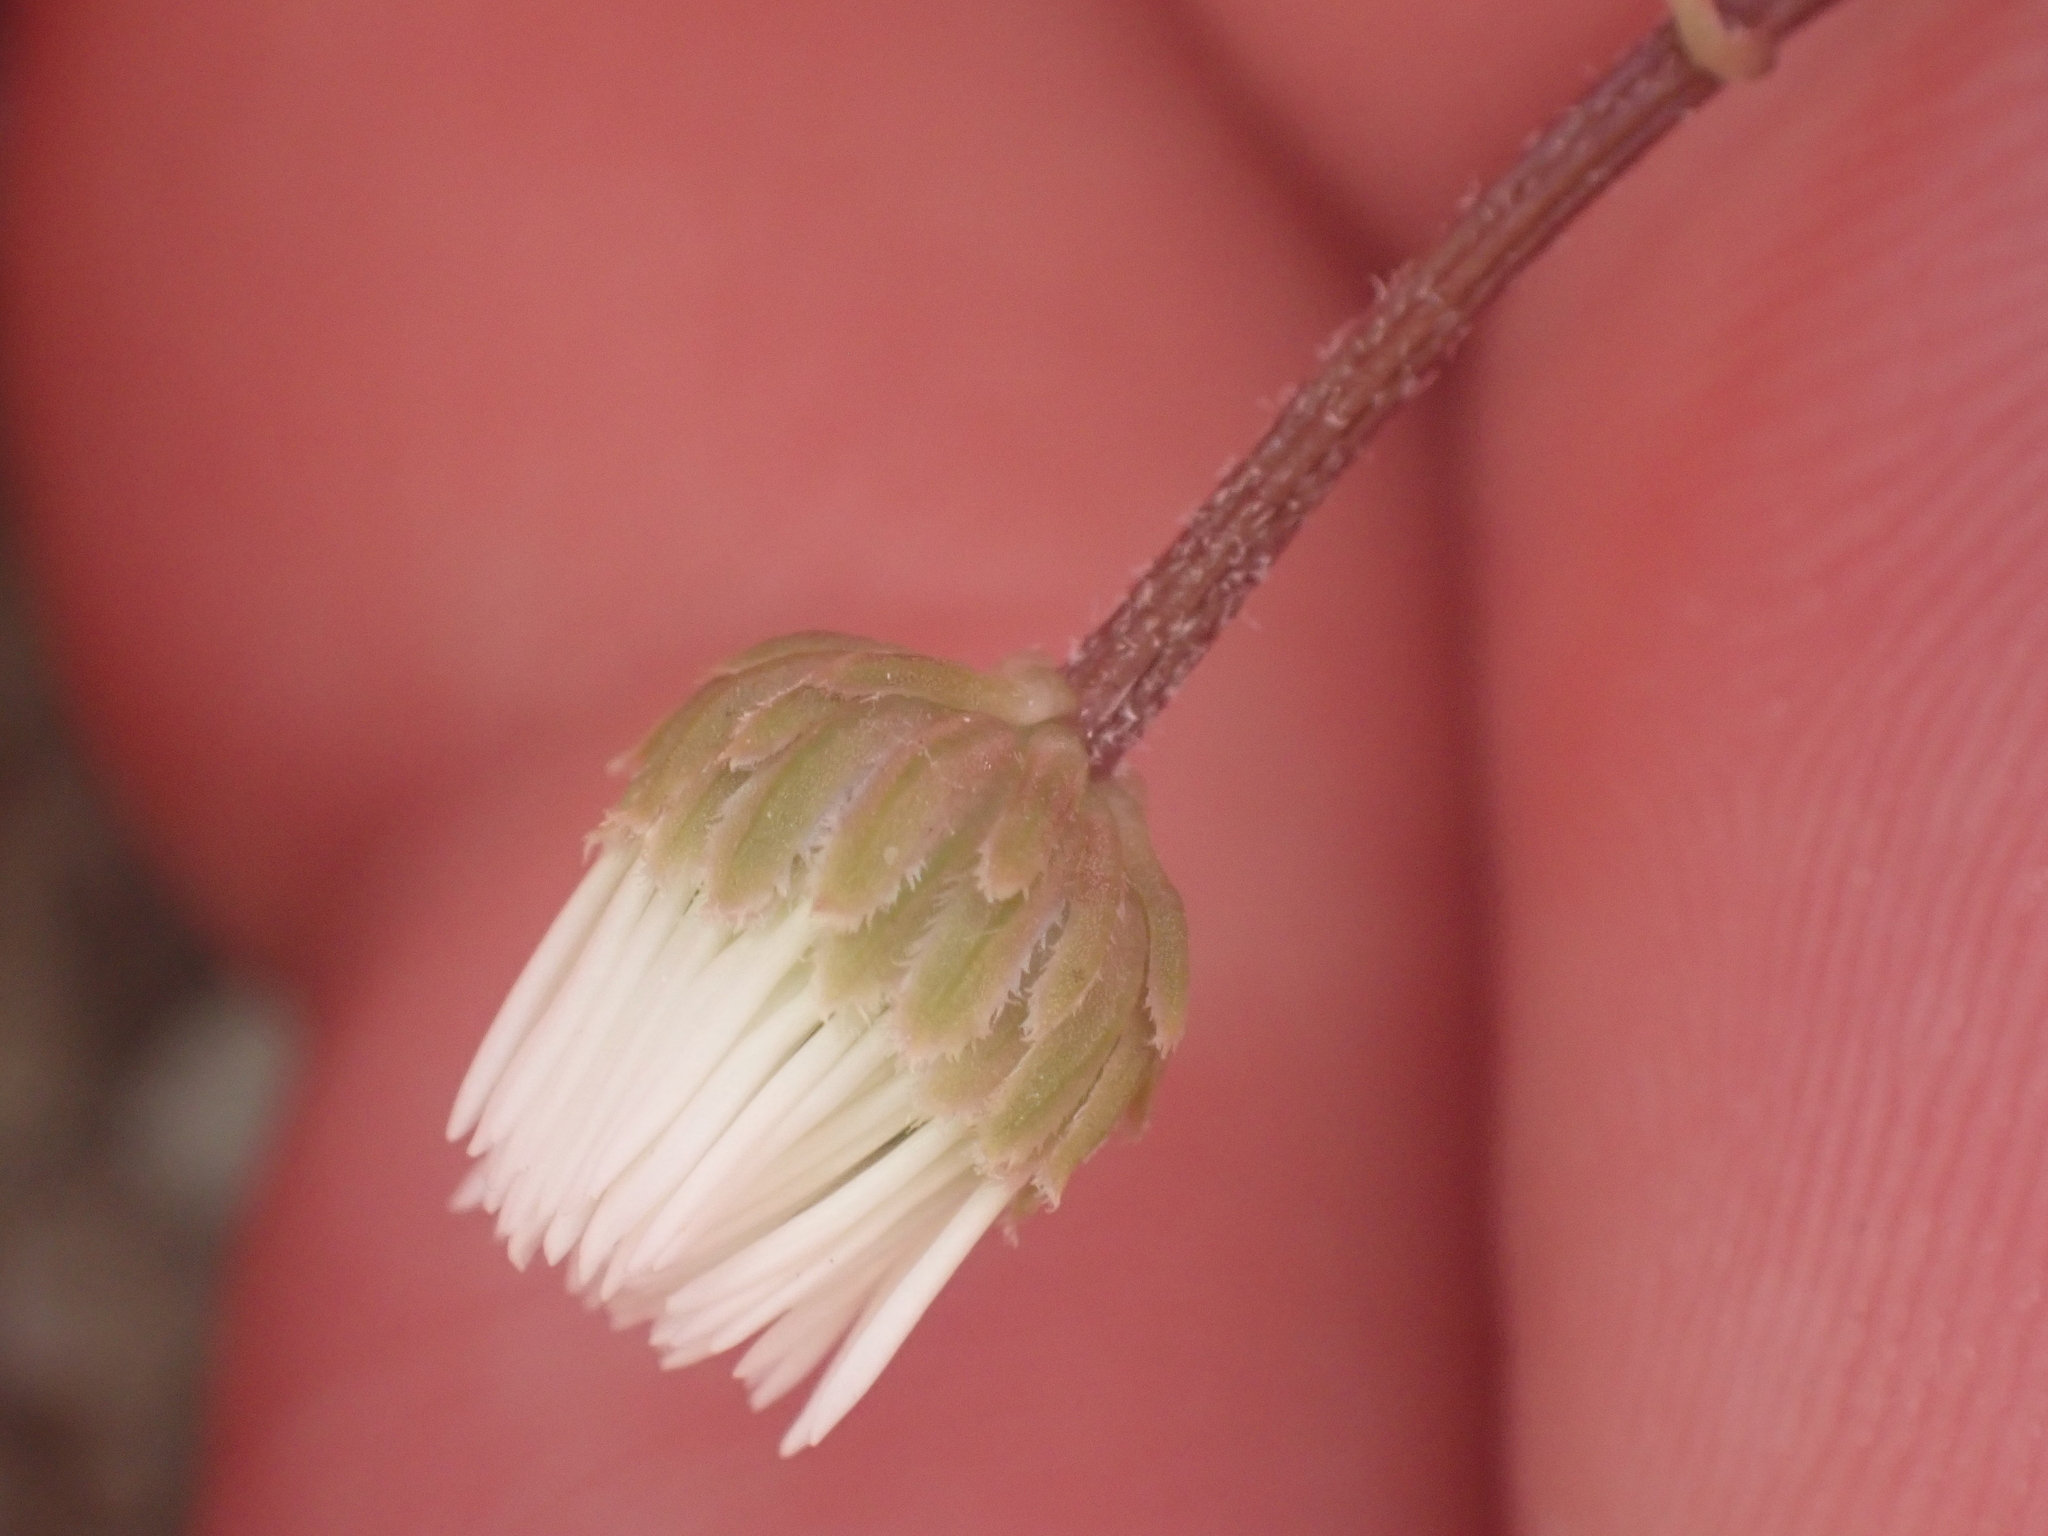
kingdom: Plantae
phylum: Tracheophyta
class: Magnoliopsida
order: Asterales
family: Asteraceae
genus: Lagenophora
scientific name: Lagenophora pumila
